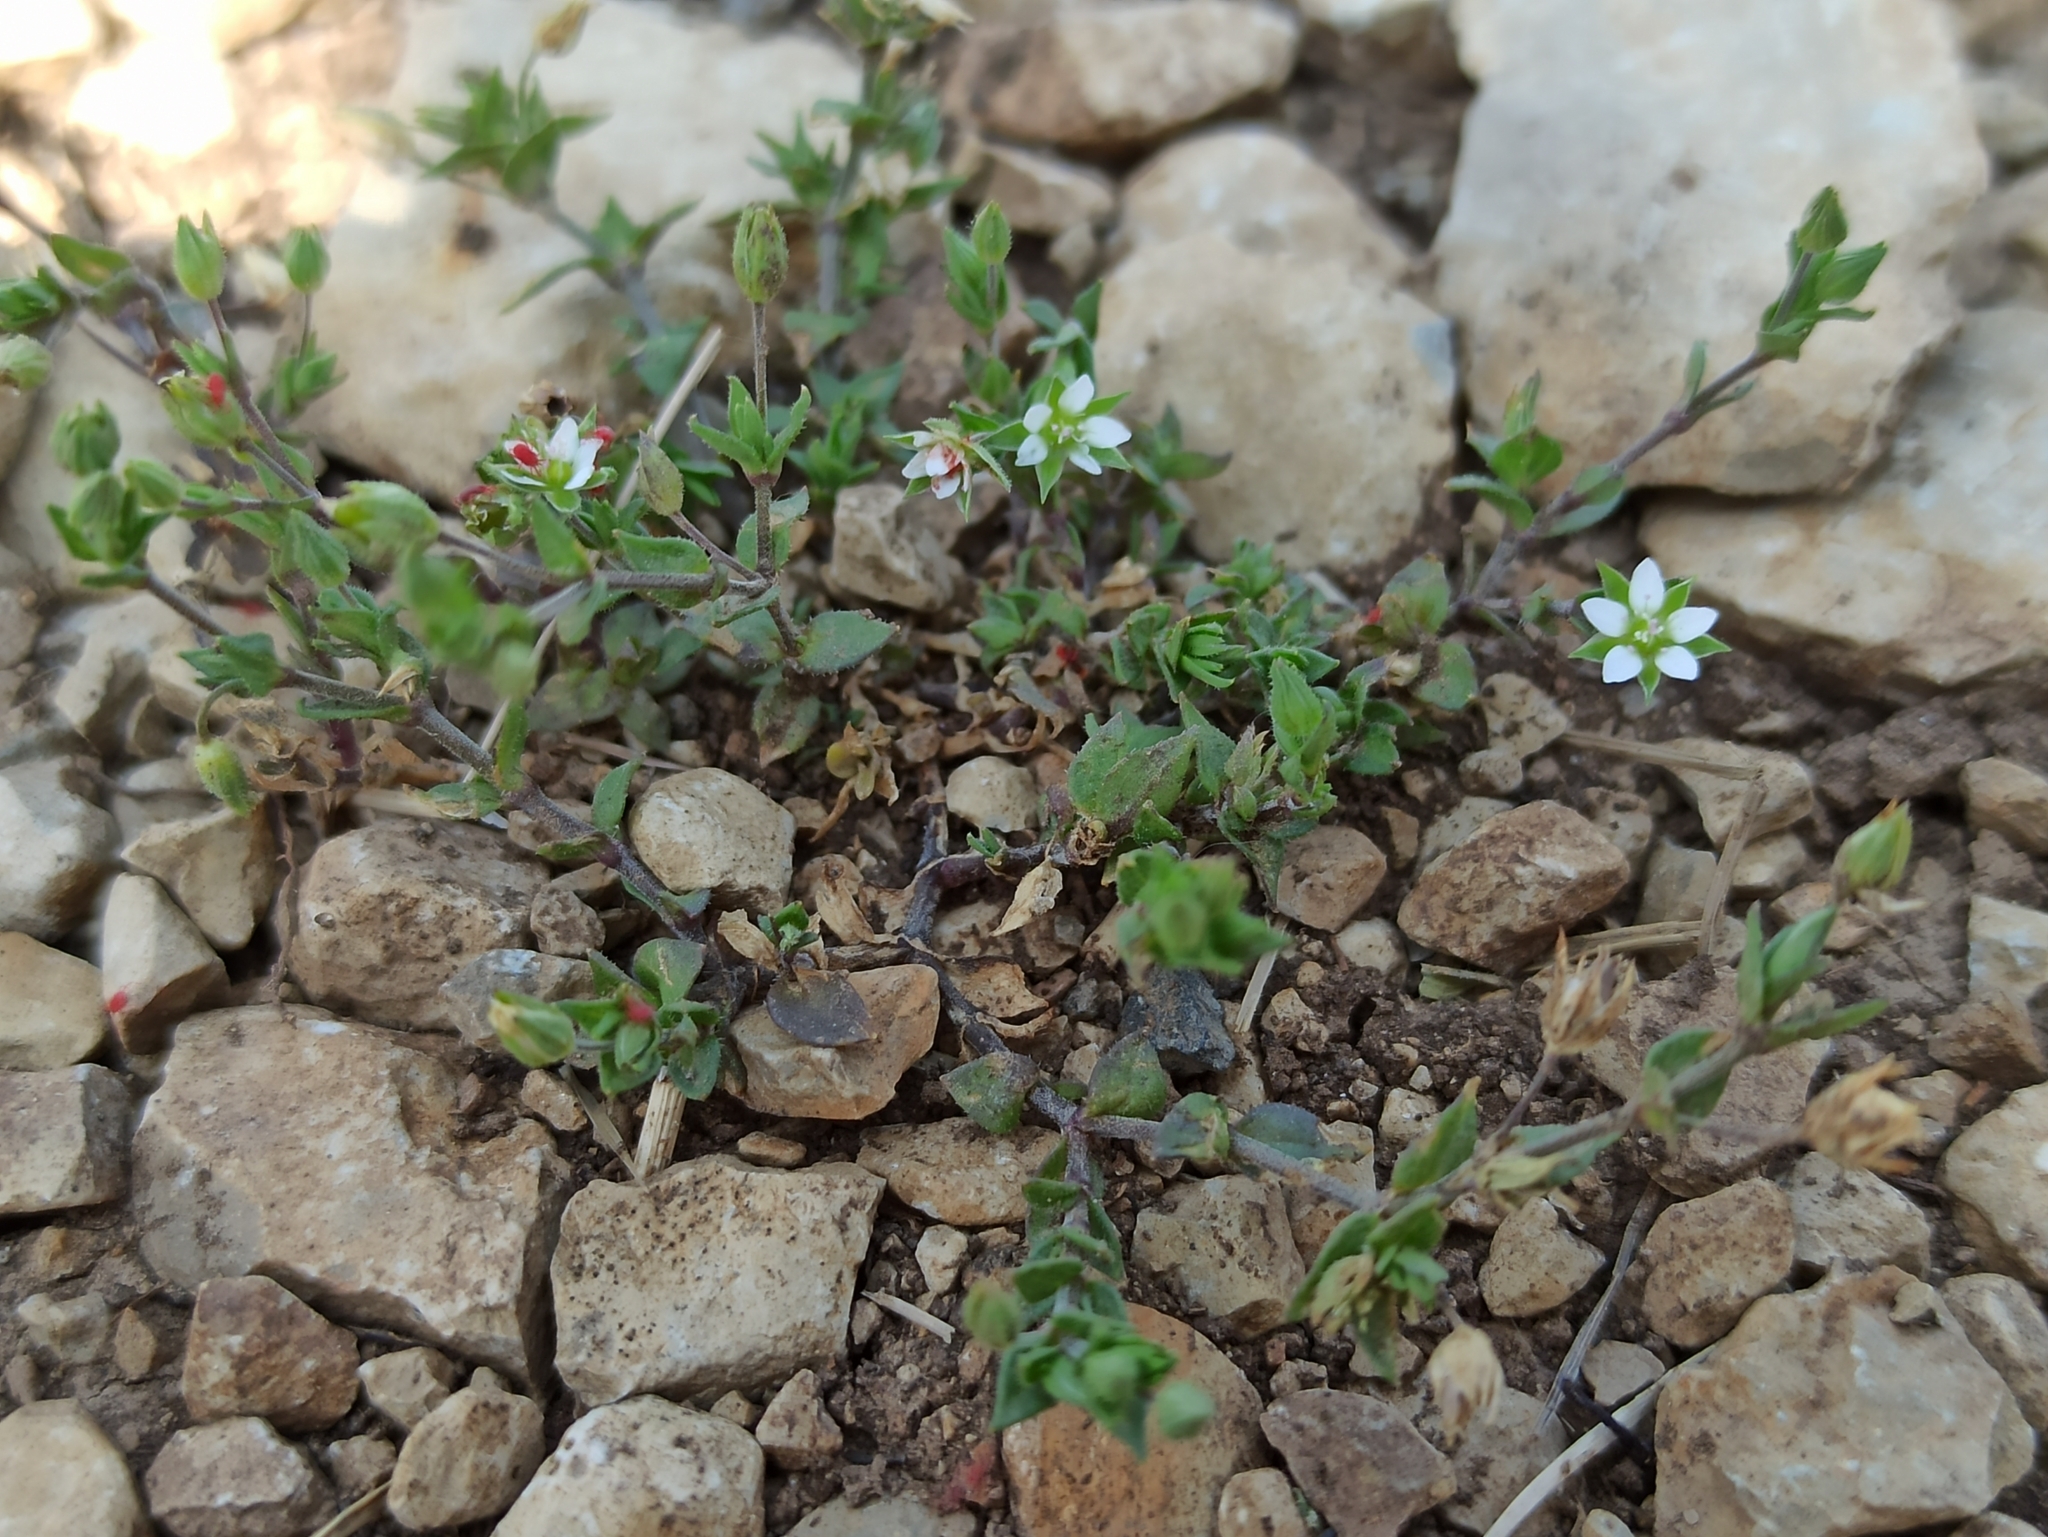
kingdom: Plantae
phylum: Tracheophyta
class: Magnoliopsida
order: Caryophyllales
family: Caryophyllaceae
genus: Arenaria
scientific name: Arenaria serpyllifolia
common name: Thyme-leaved sandwort
